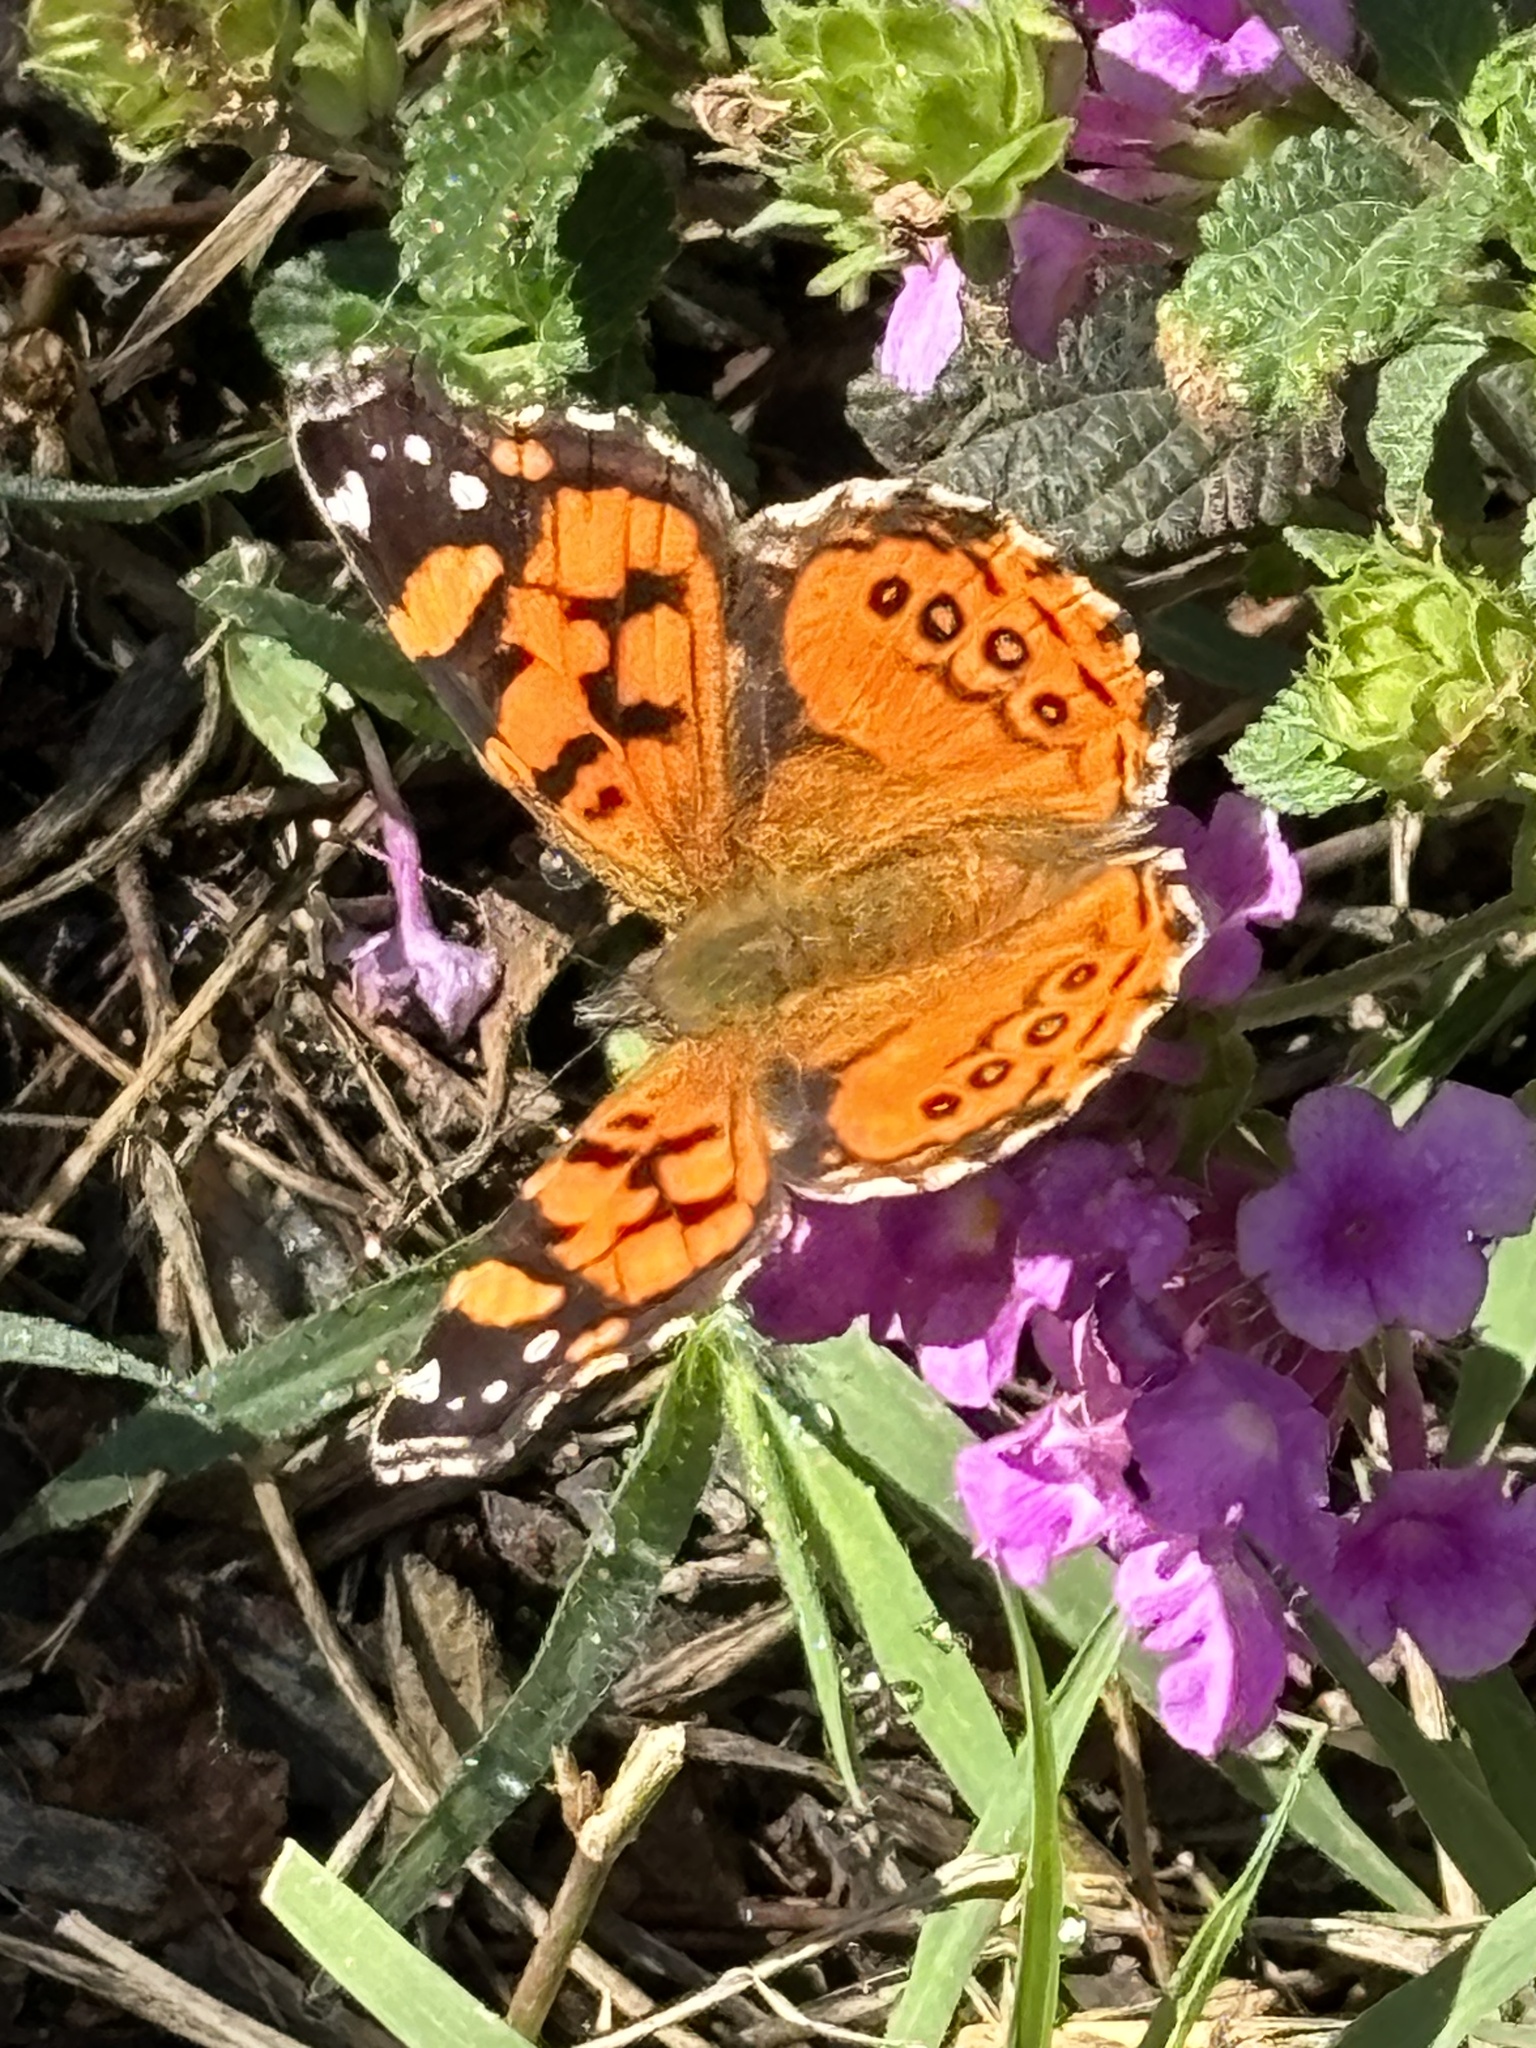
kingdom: Animalia
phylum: Arthropoda
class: Insecta
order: Lepidoptera
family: Nymphalidae
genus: Vanessa
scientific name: Vanessa annabella
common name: West coast lady
